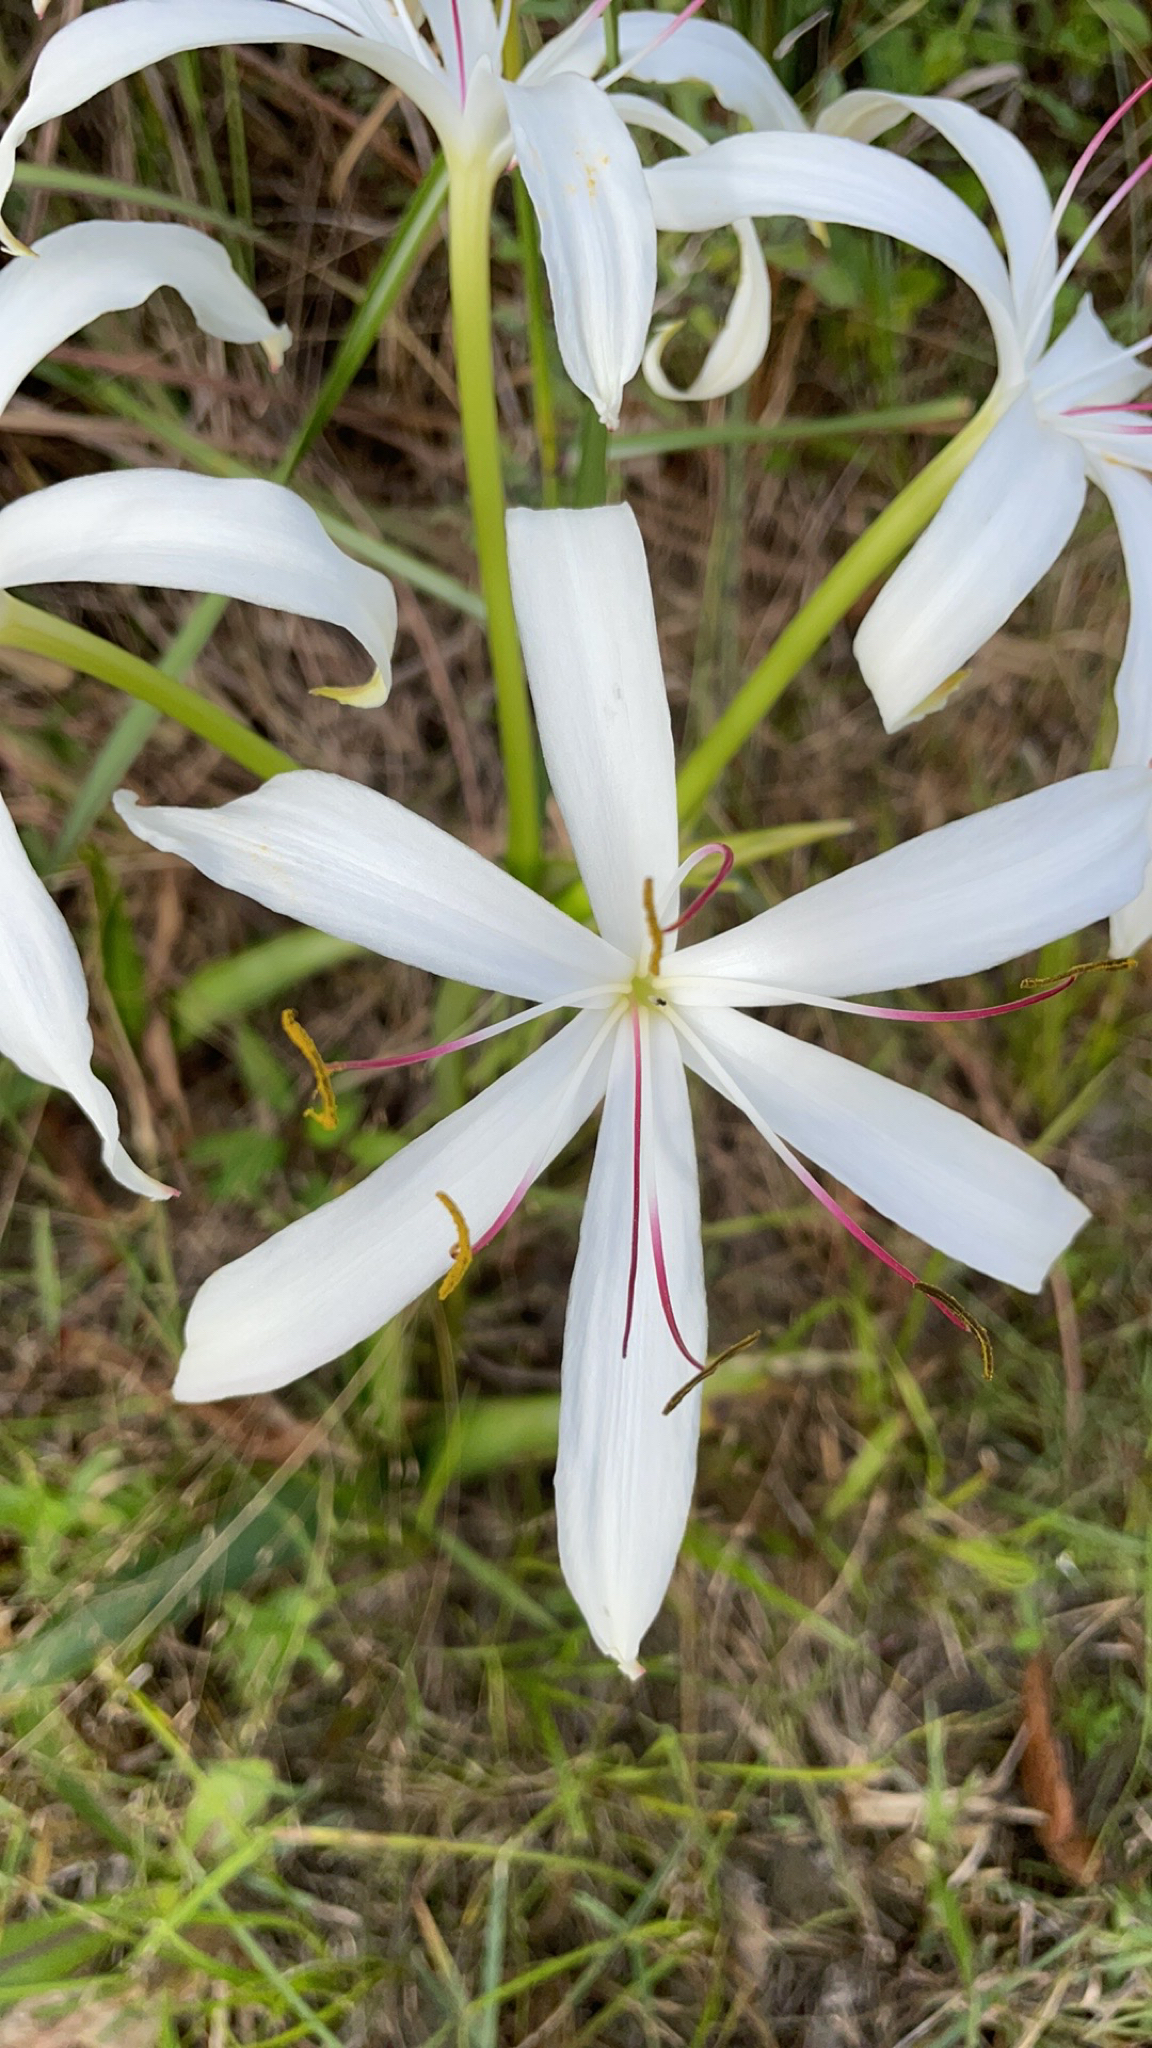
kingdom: Plantae
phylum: Tracheophyta
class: Liliopsida
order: Asparagales
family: Amaryllidaceae
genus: Crinum
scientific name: Crinum americanum
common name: Florida swamp-lily
